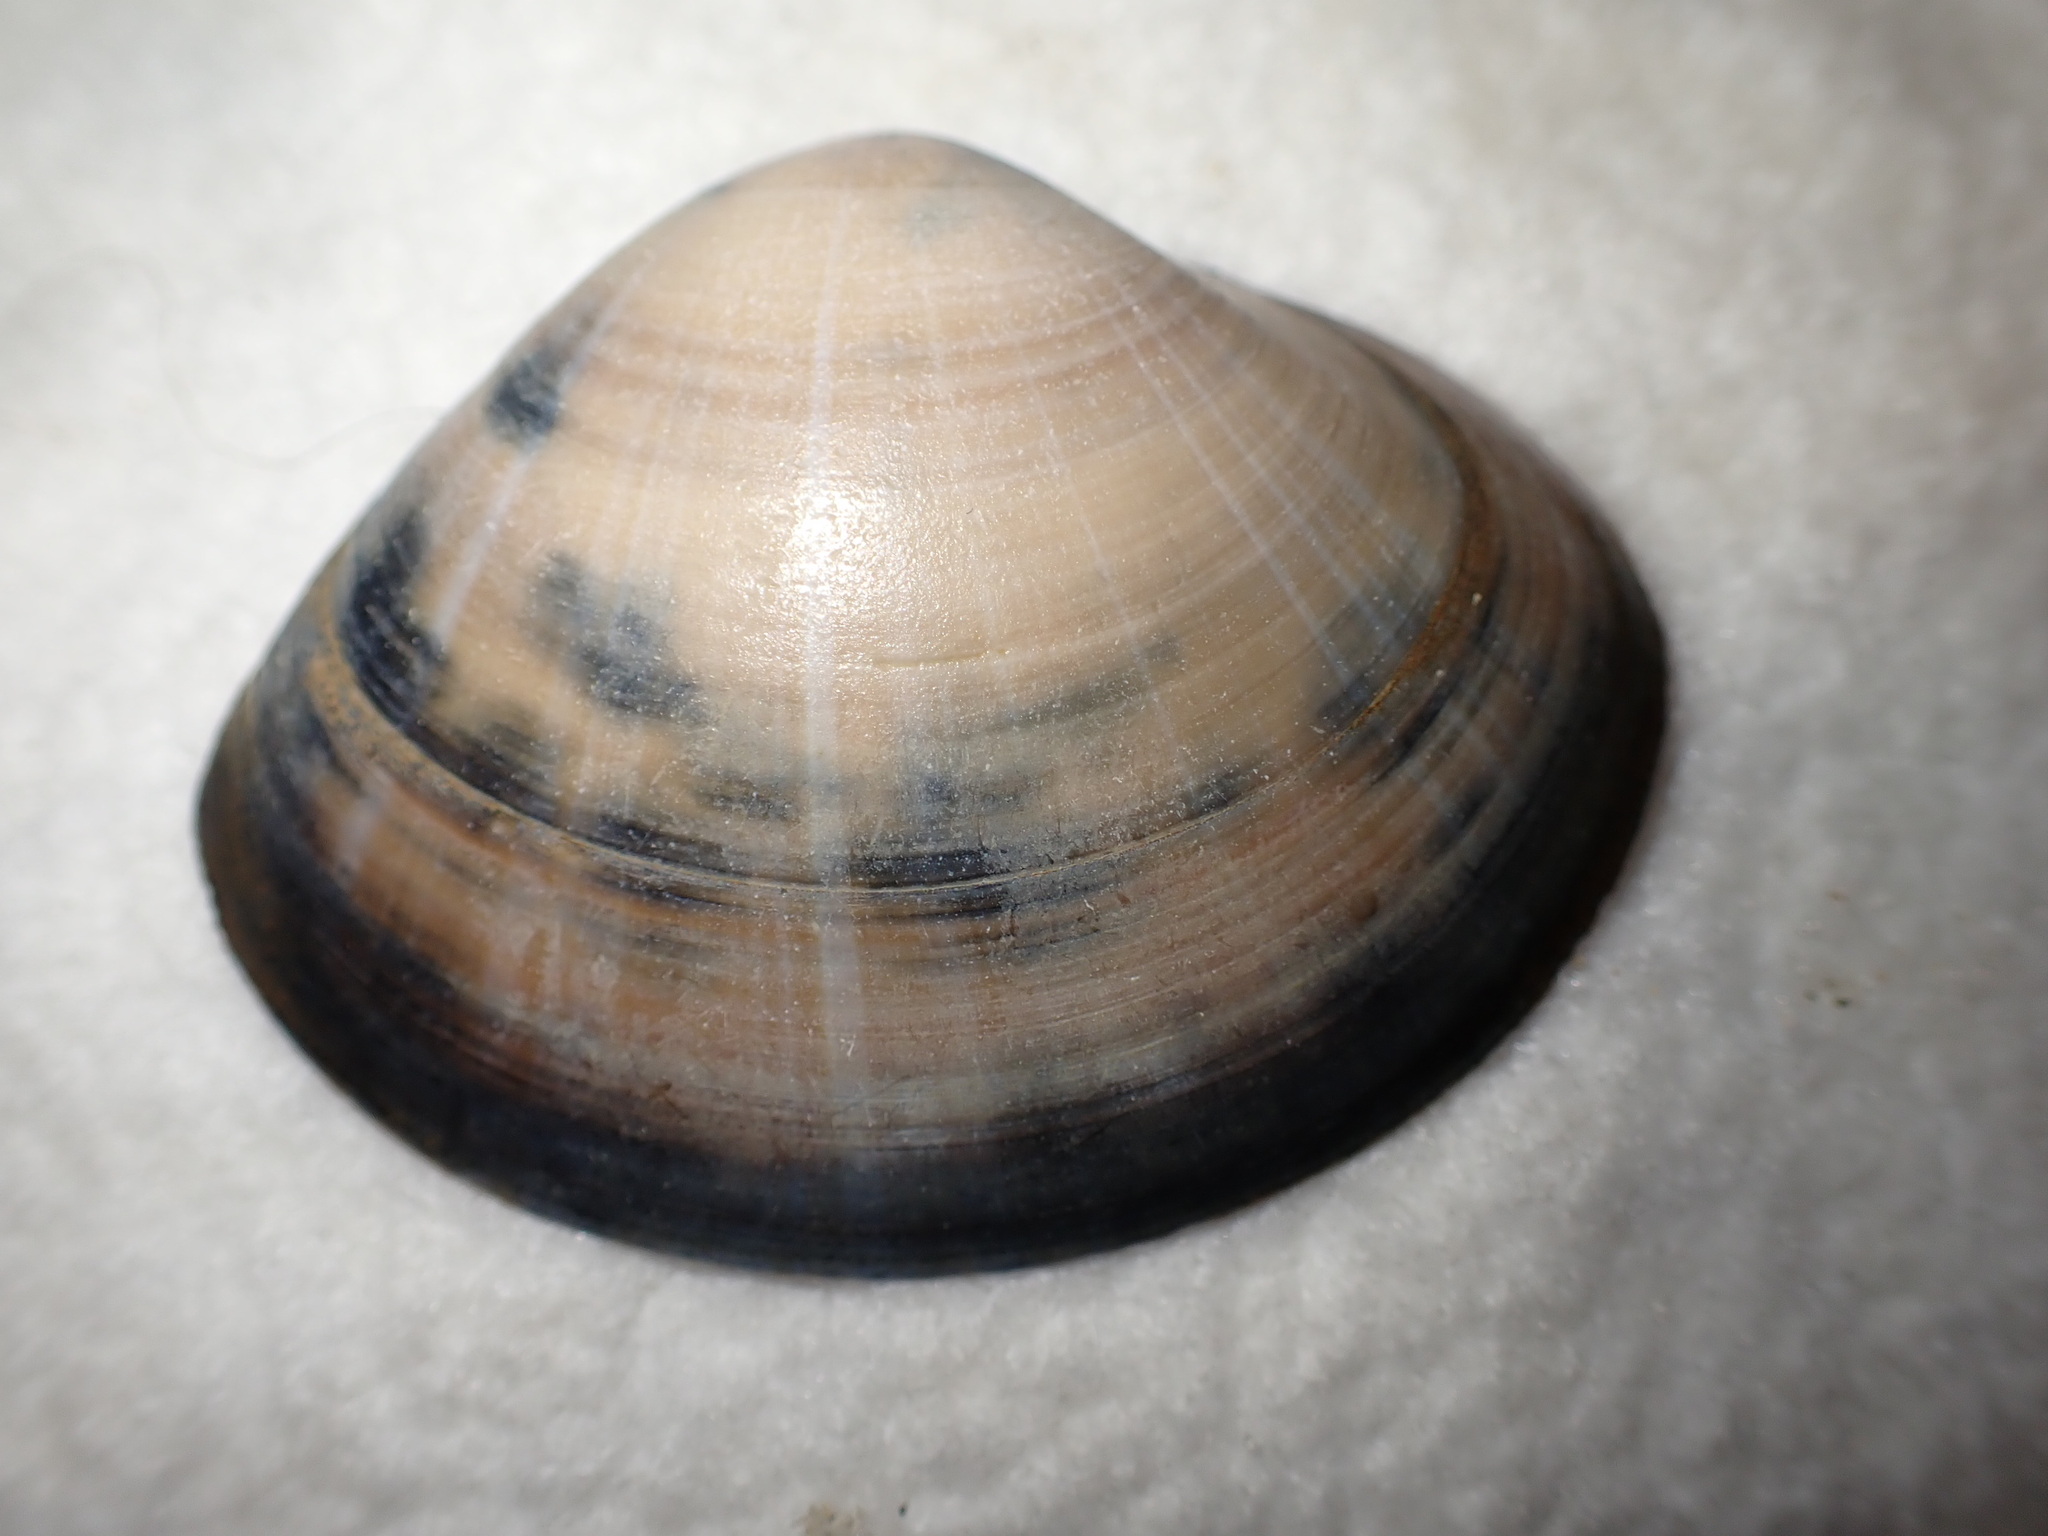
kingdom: Animalia
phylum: Mollusca
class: Bivalvia
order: Venerida
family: Mactridae
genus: Mactra
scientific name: Mactra stultorum
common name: Rayed trough shell
